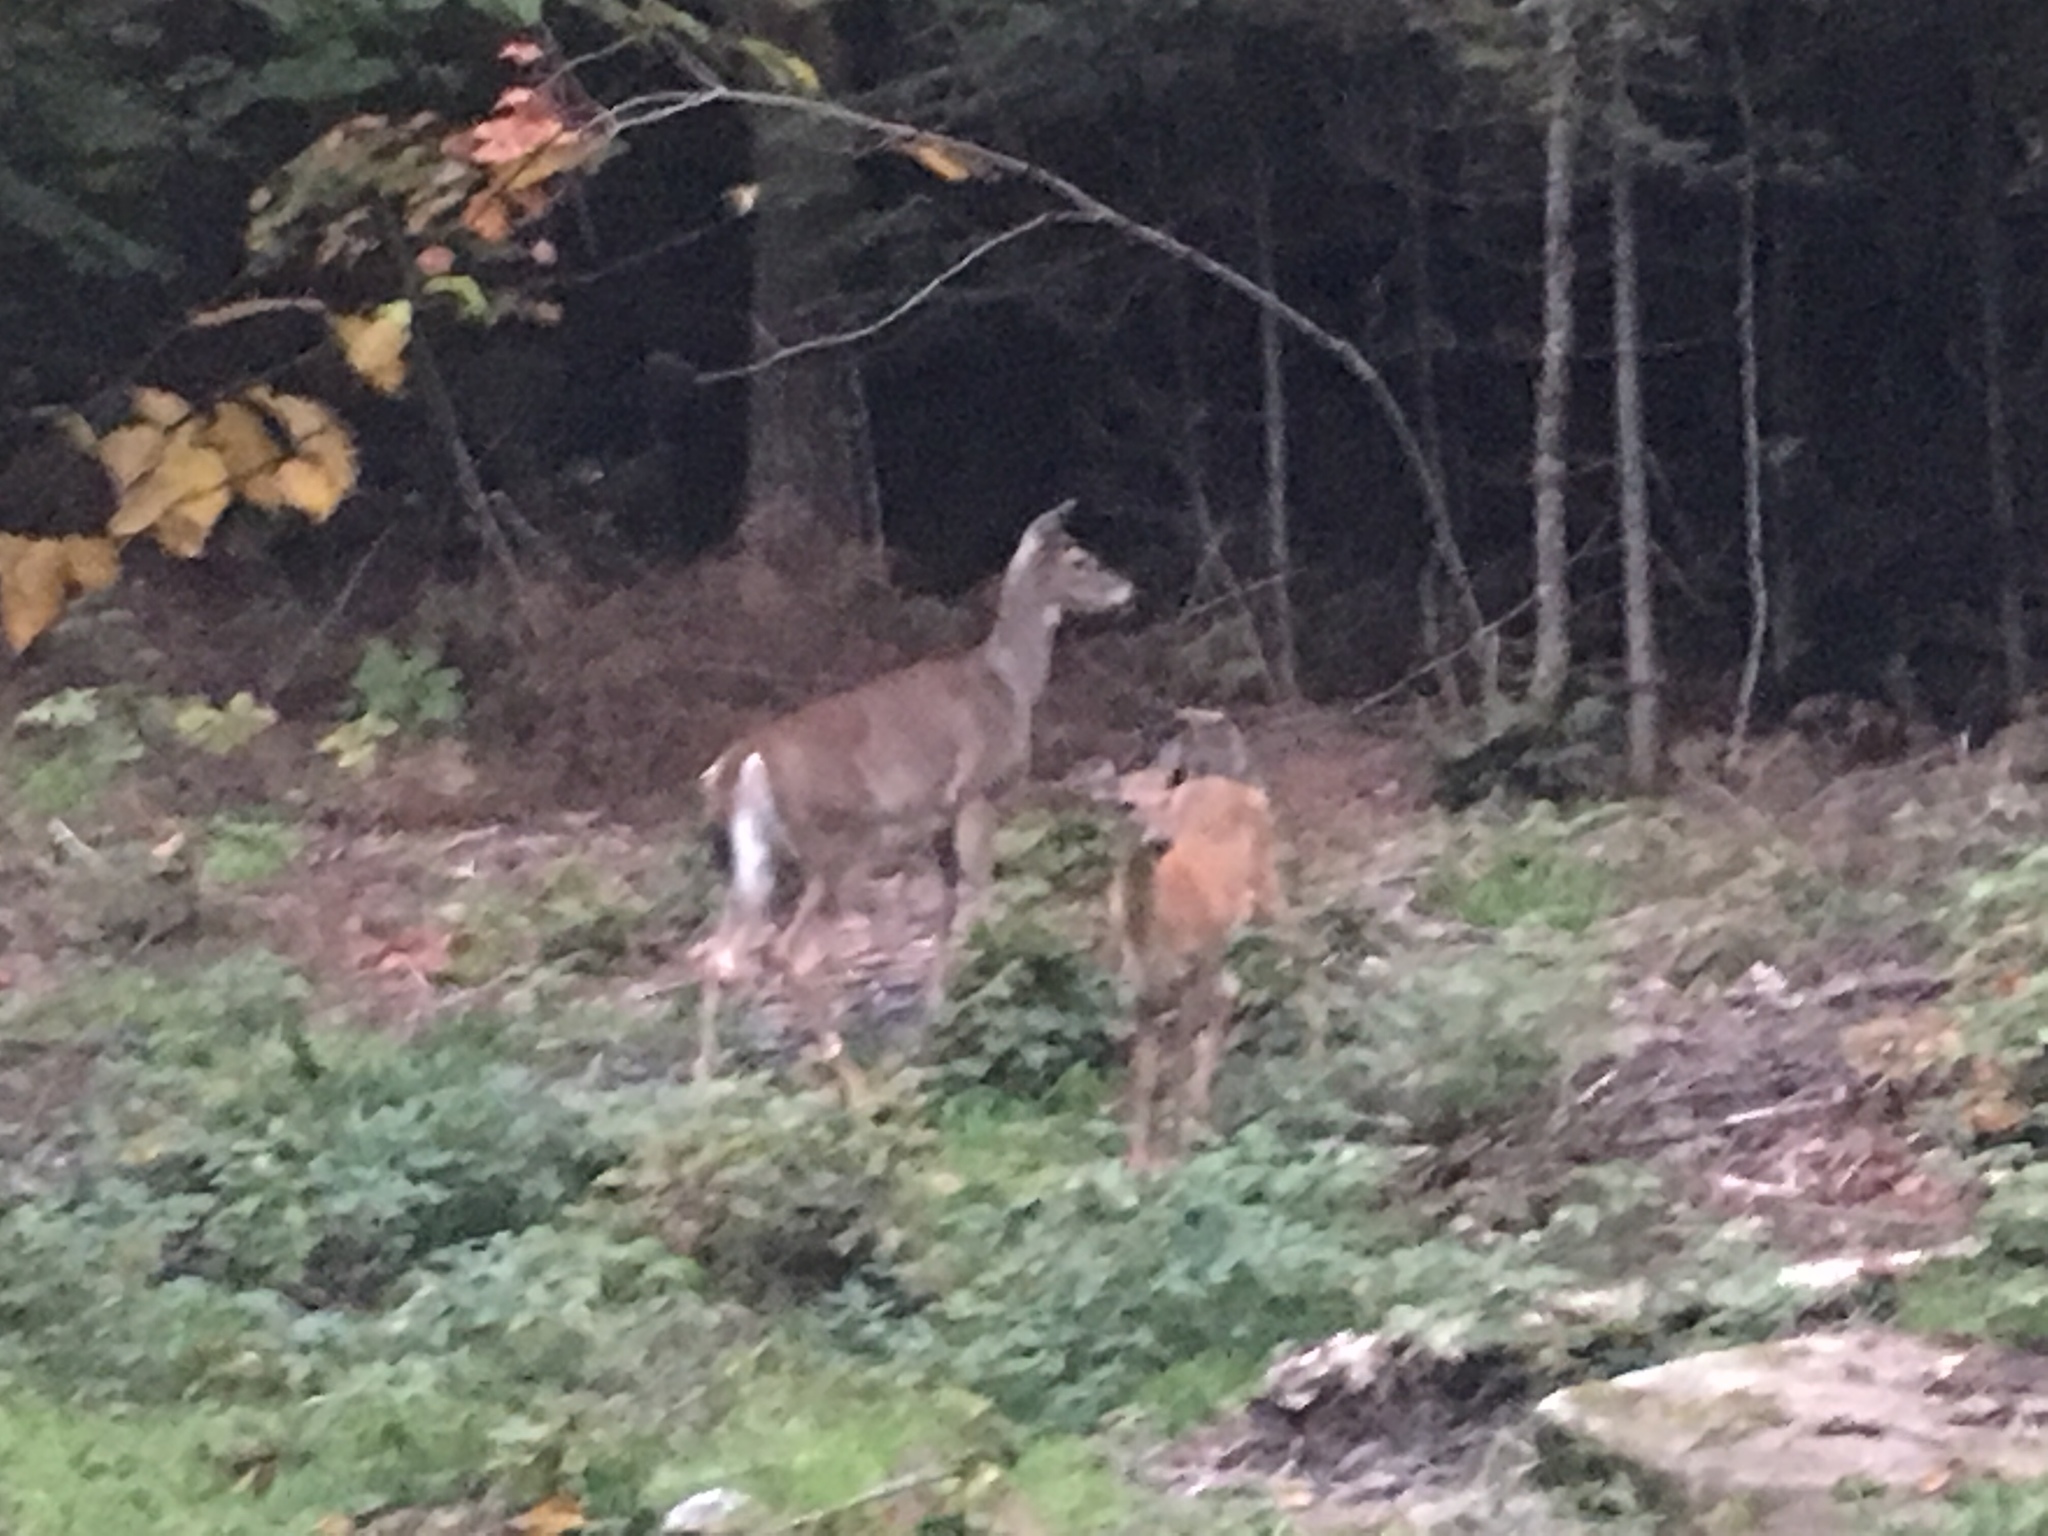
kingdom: Animalia
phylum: Chordata
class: Mammalia
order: Artiodactyla
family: Cervidae
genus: Odocoileus
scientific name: Odocoileus virginianus
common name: White-tailed deer
